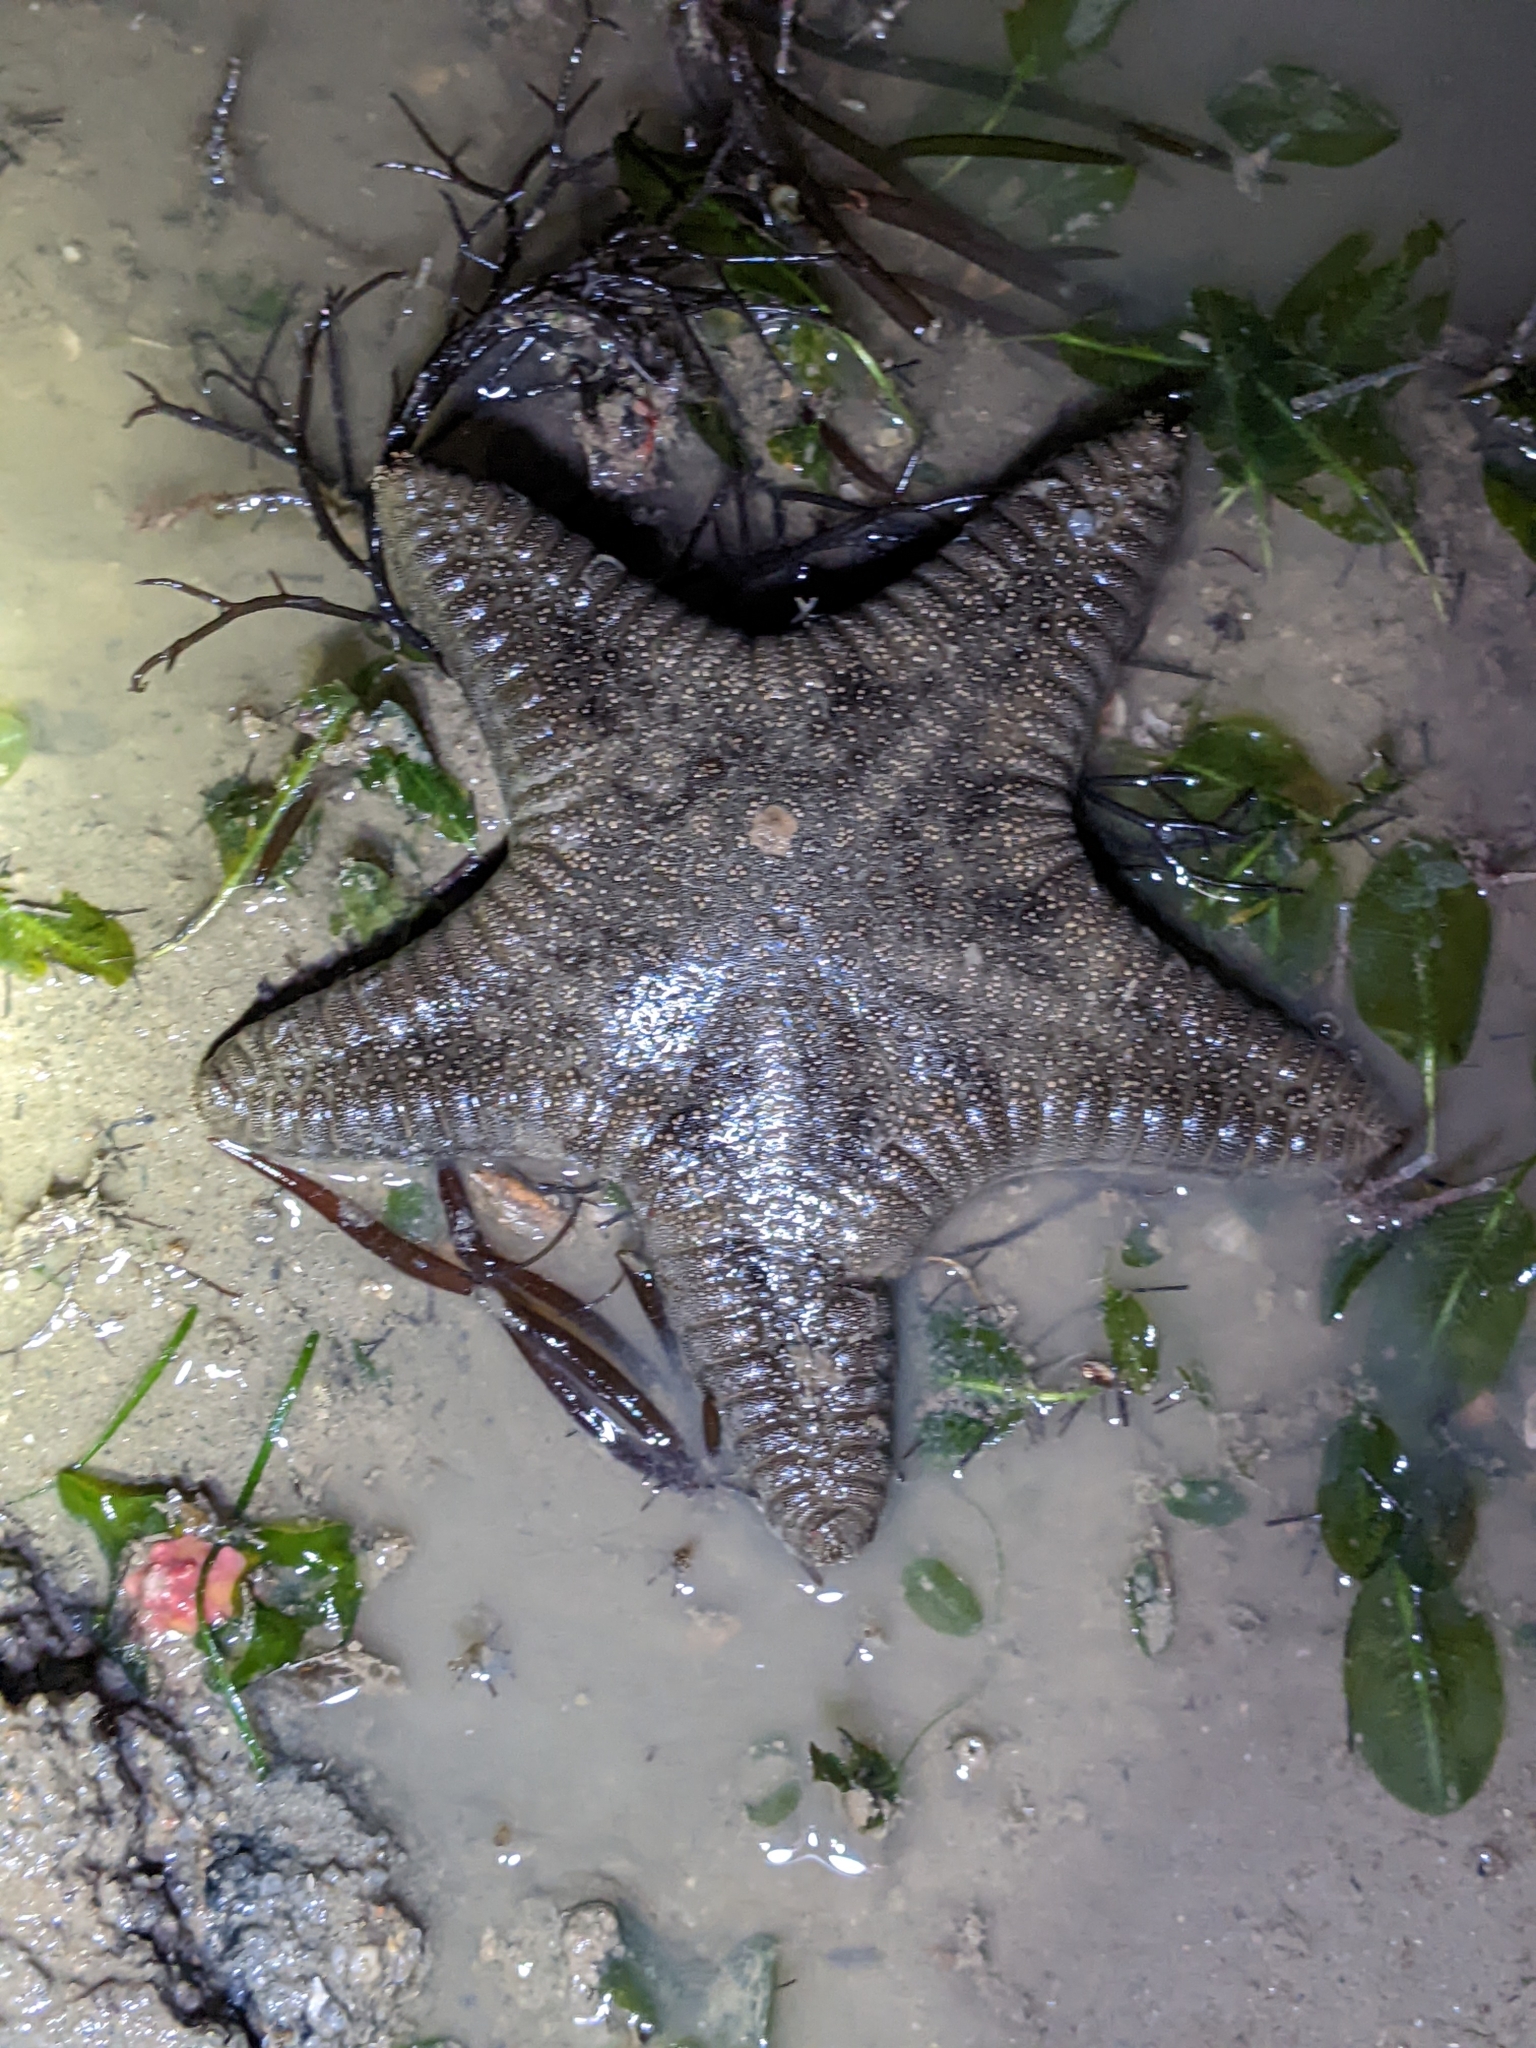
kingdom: Animalia
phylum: Echinodermata
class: Asteroidea
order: Valvatida
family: Goniasteridae
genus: Goniodiscaster
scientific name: Goniodiscaster scaber
